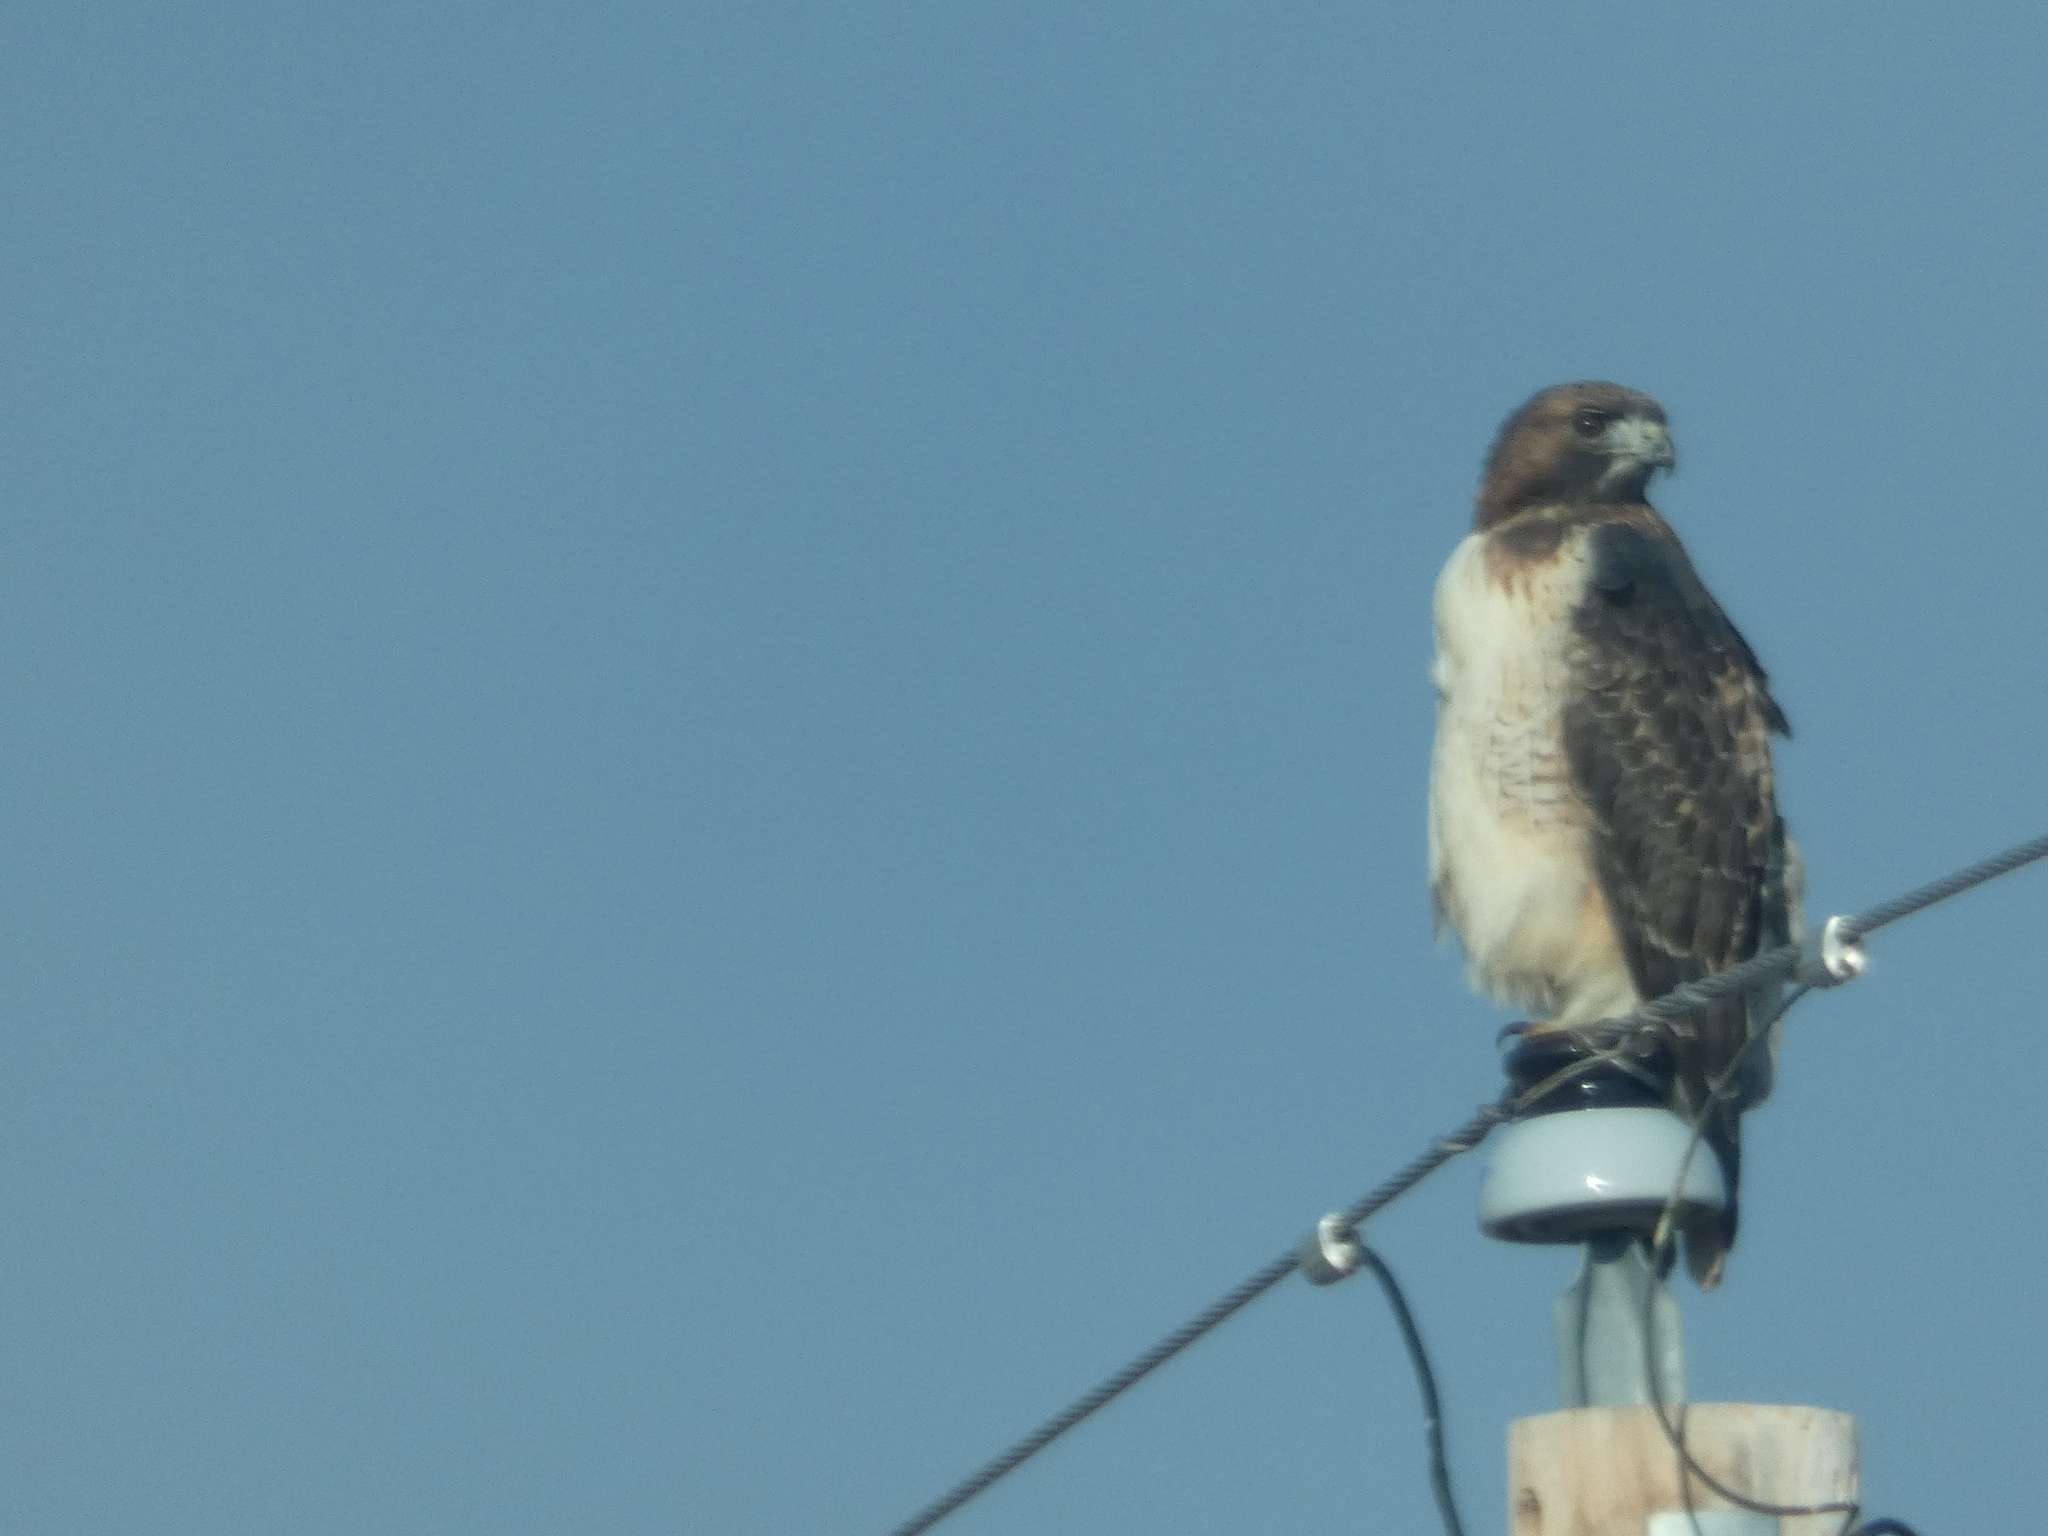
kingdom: Animalia
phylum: Chordata
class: Aves
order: Accipitriformes
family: Accipitridae
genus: Buteo
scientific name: Buteo jamaicensis
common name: Red-tailed hawk
